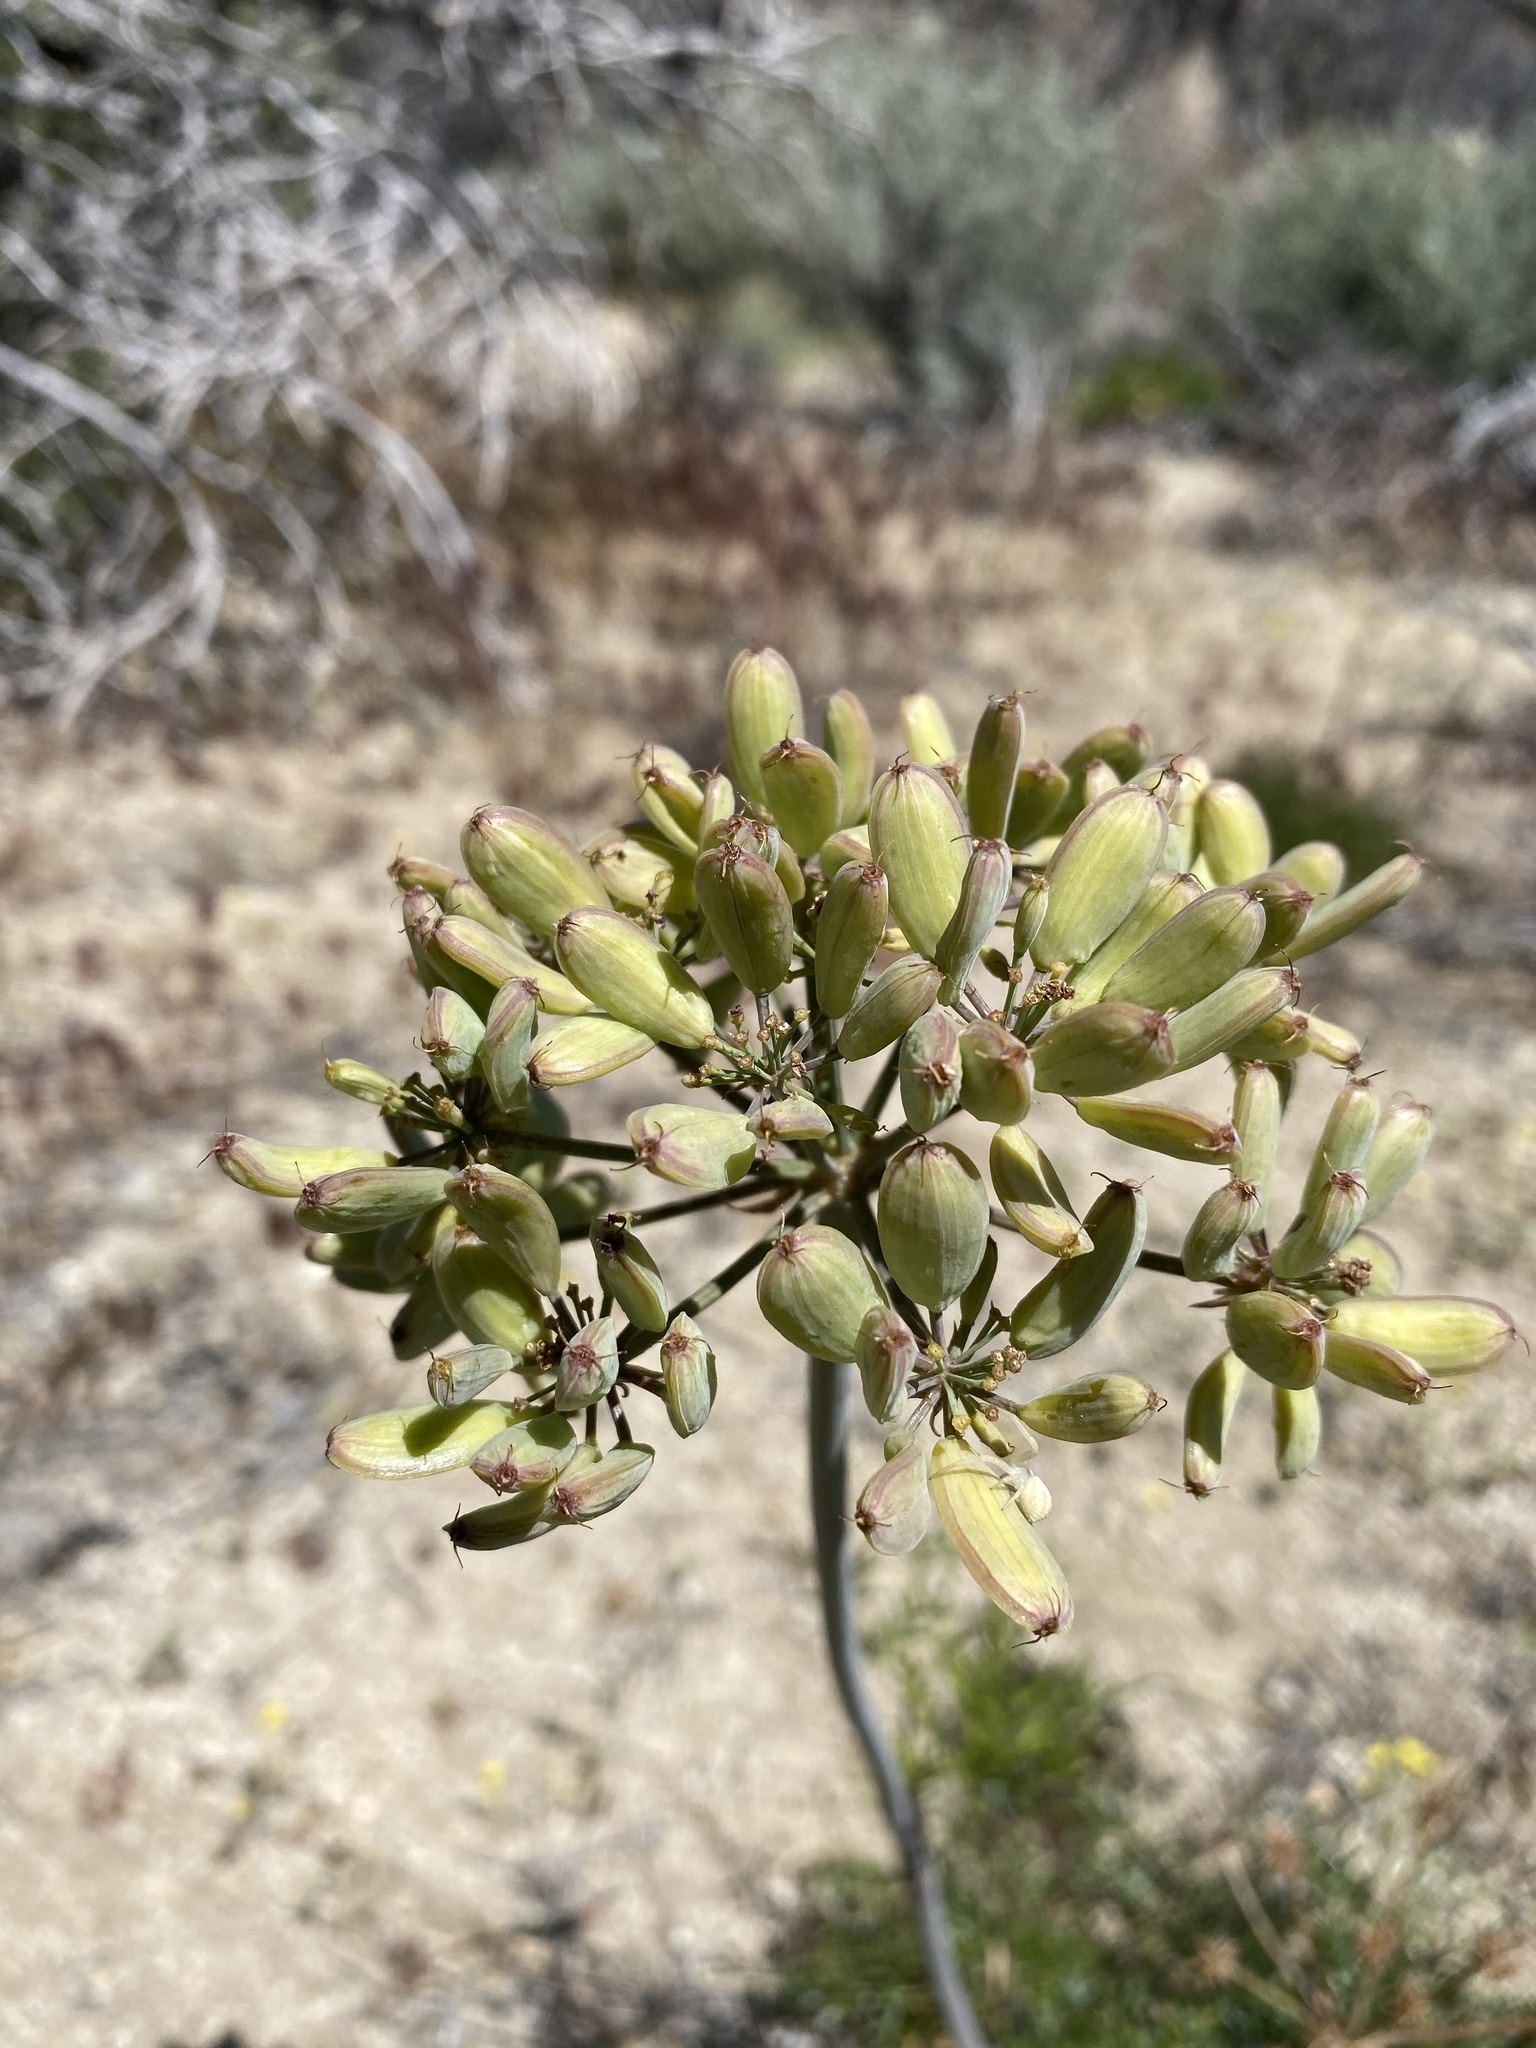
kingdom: Plantae
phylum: Tracheophyta
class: Magnoliopsida
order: Apiales
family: Apiaceae
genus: Lomatium
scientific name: Lomatium multifidum
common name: Carrot-leaved biscuitroot
